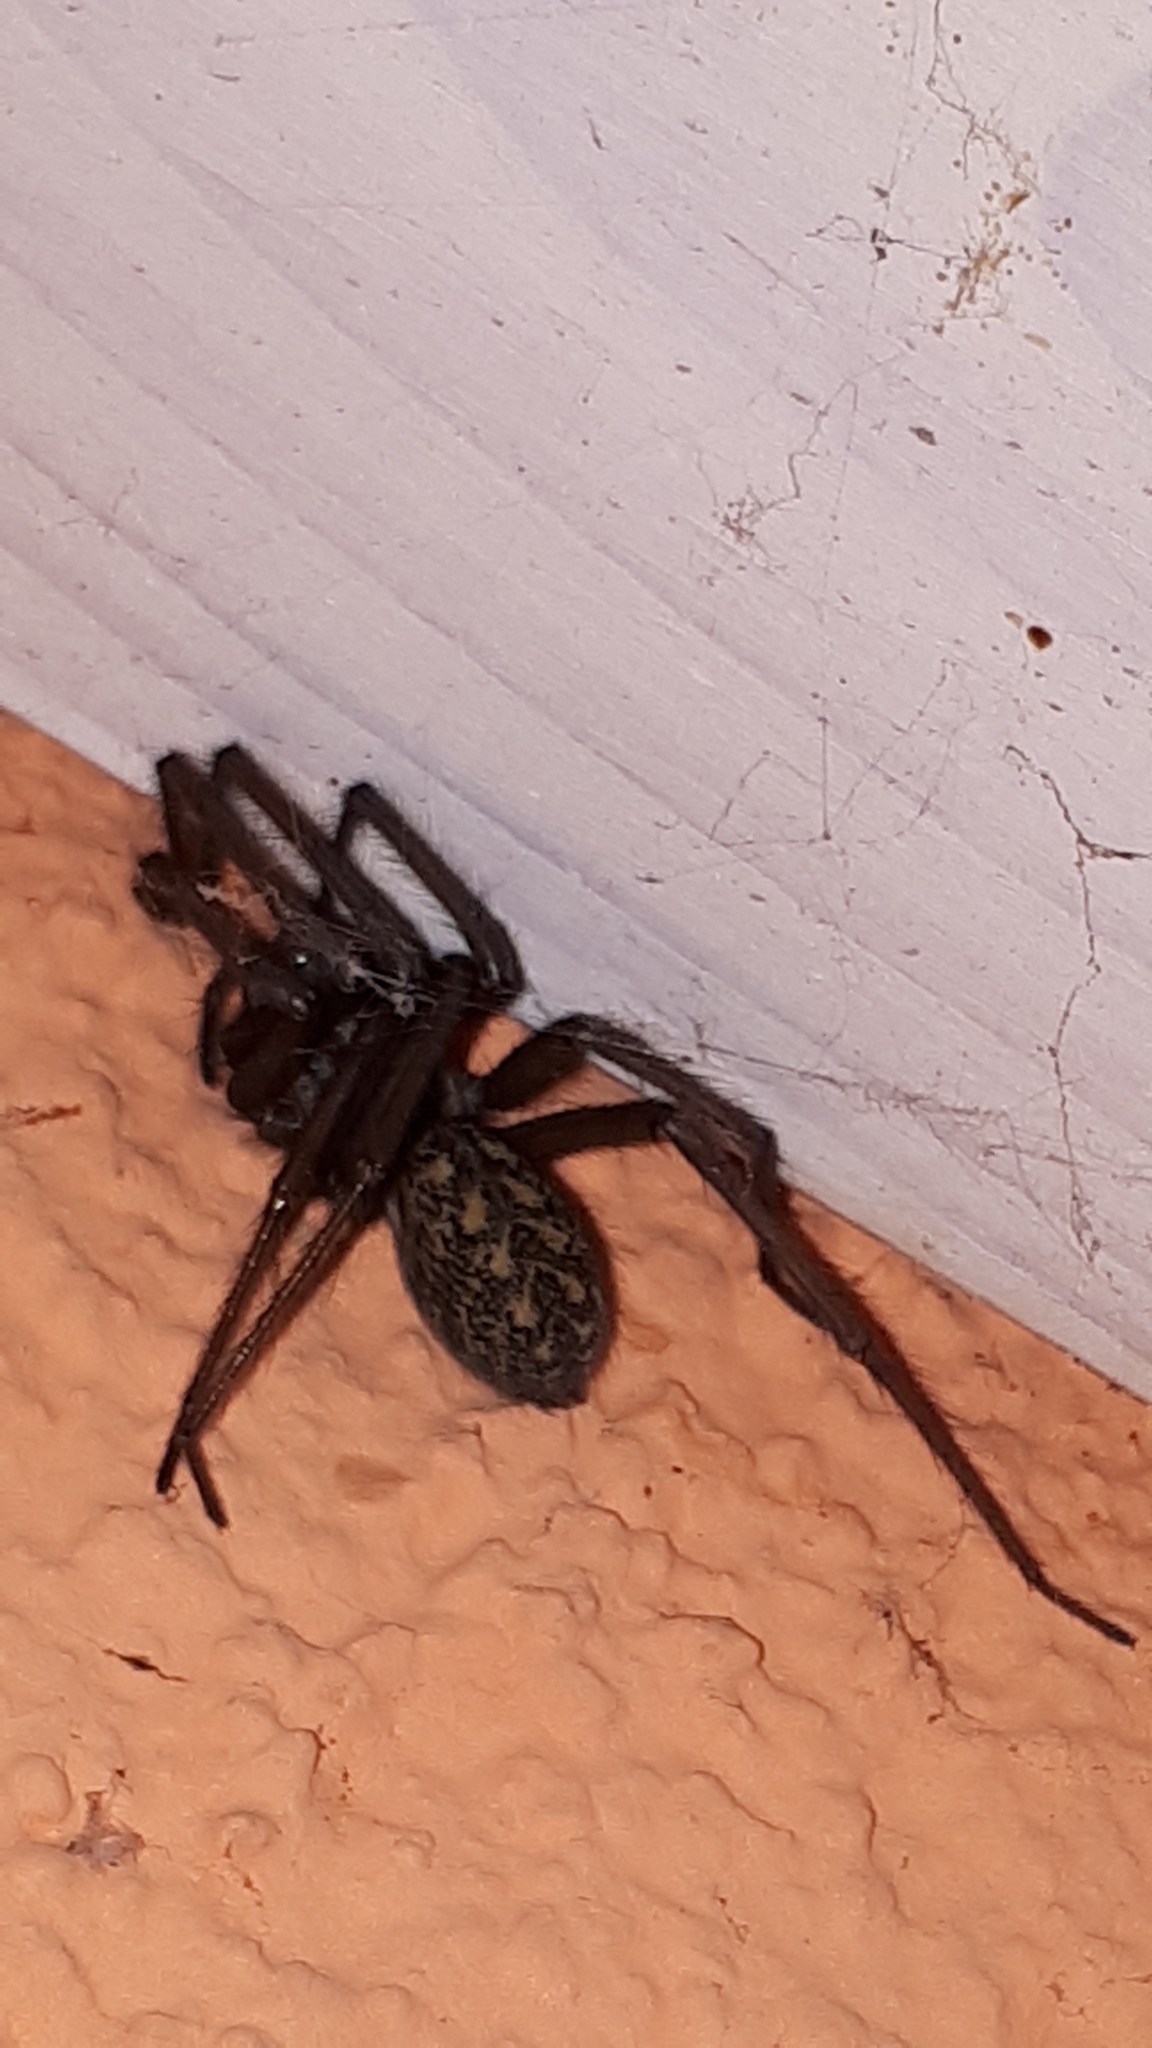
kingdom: Animalia
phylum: Arthropoda
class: Arachnida
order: Araneae
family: Agelenidae
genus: Eratigena
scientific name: Eratigena atrica
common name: Giant house spider
